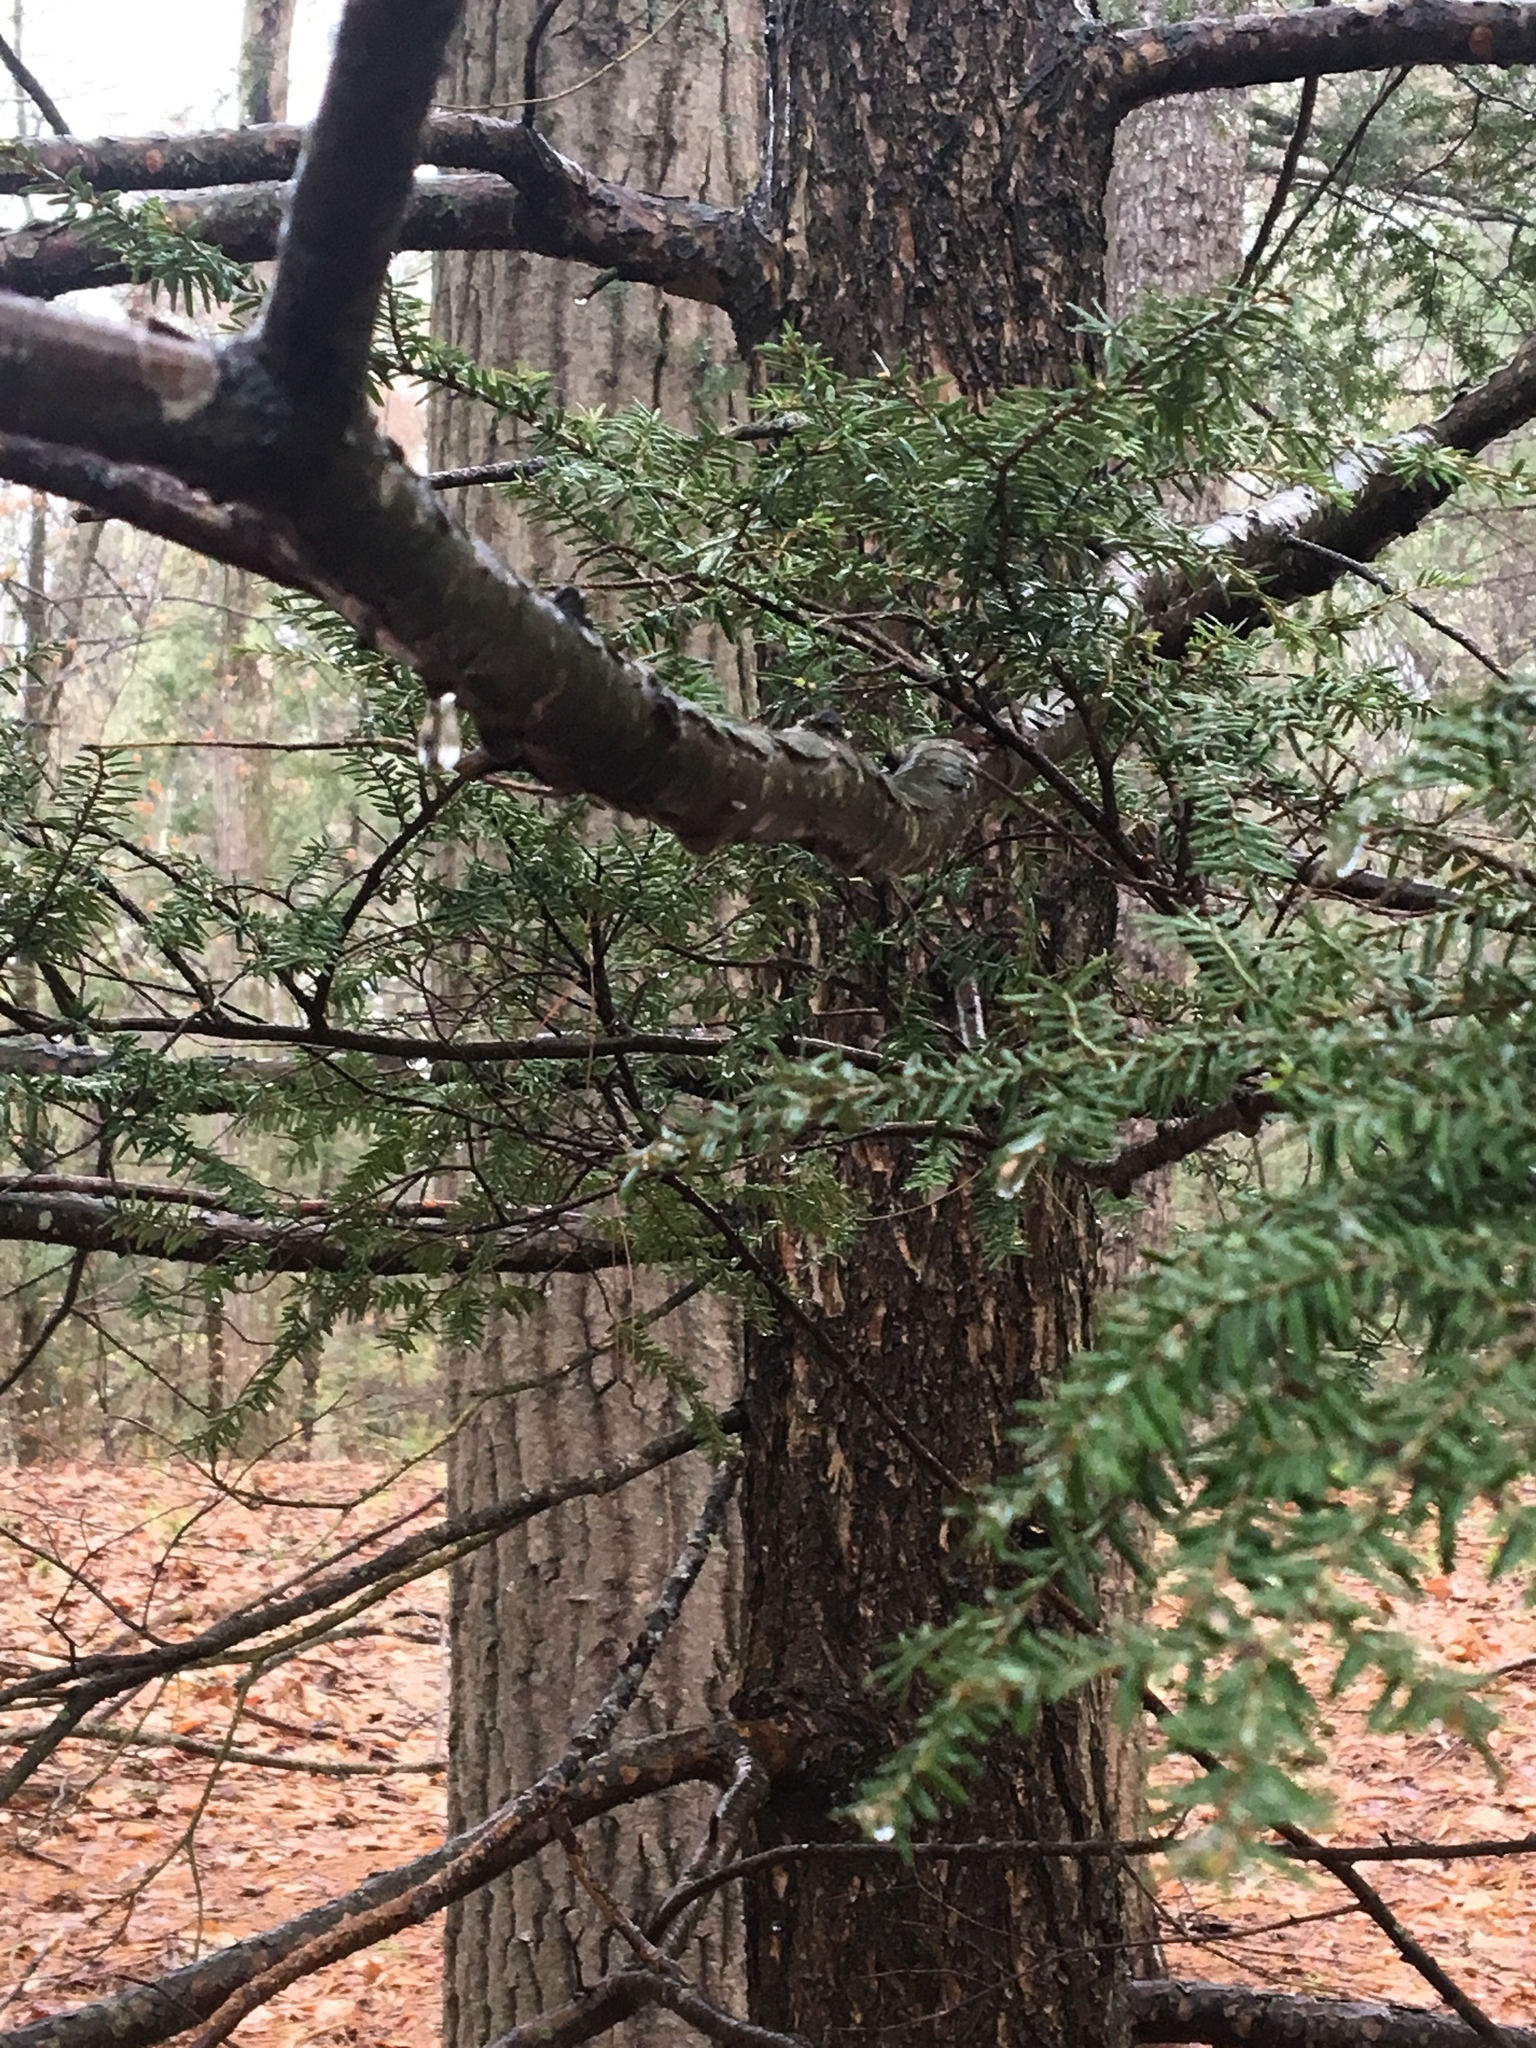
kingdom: Plantae
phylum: Tracheophyta
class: Pinopsida
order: Pinales
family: Pinaceae
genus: Tsuga
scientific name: Tsuga canadensis
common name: Eastern hemlock
